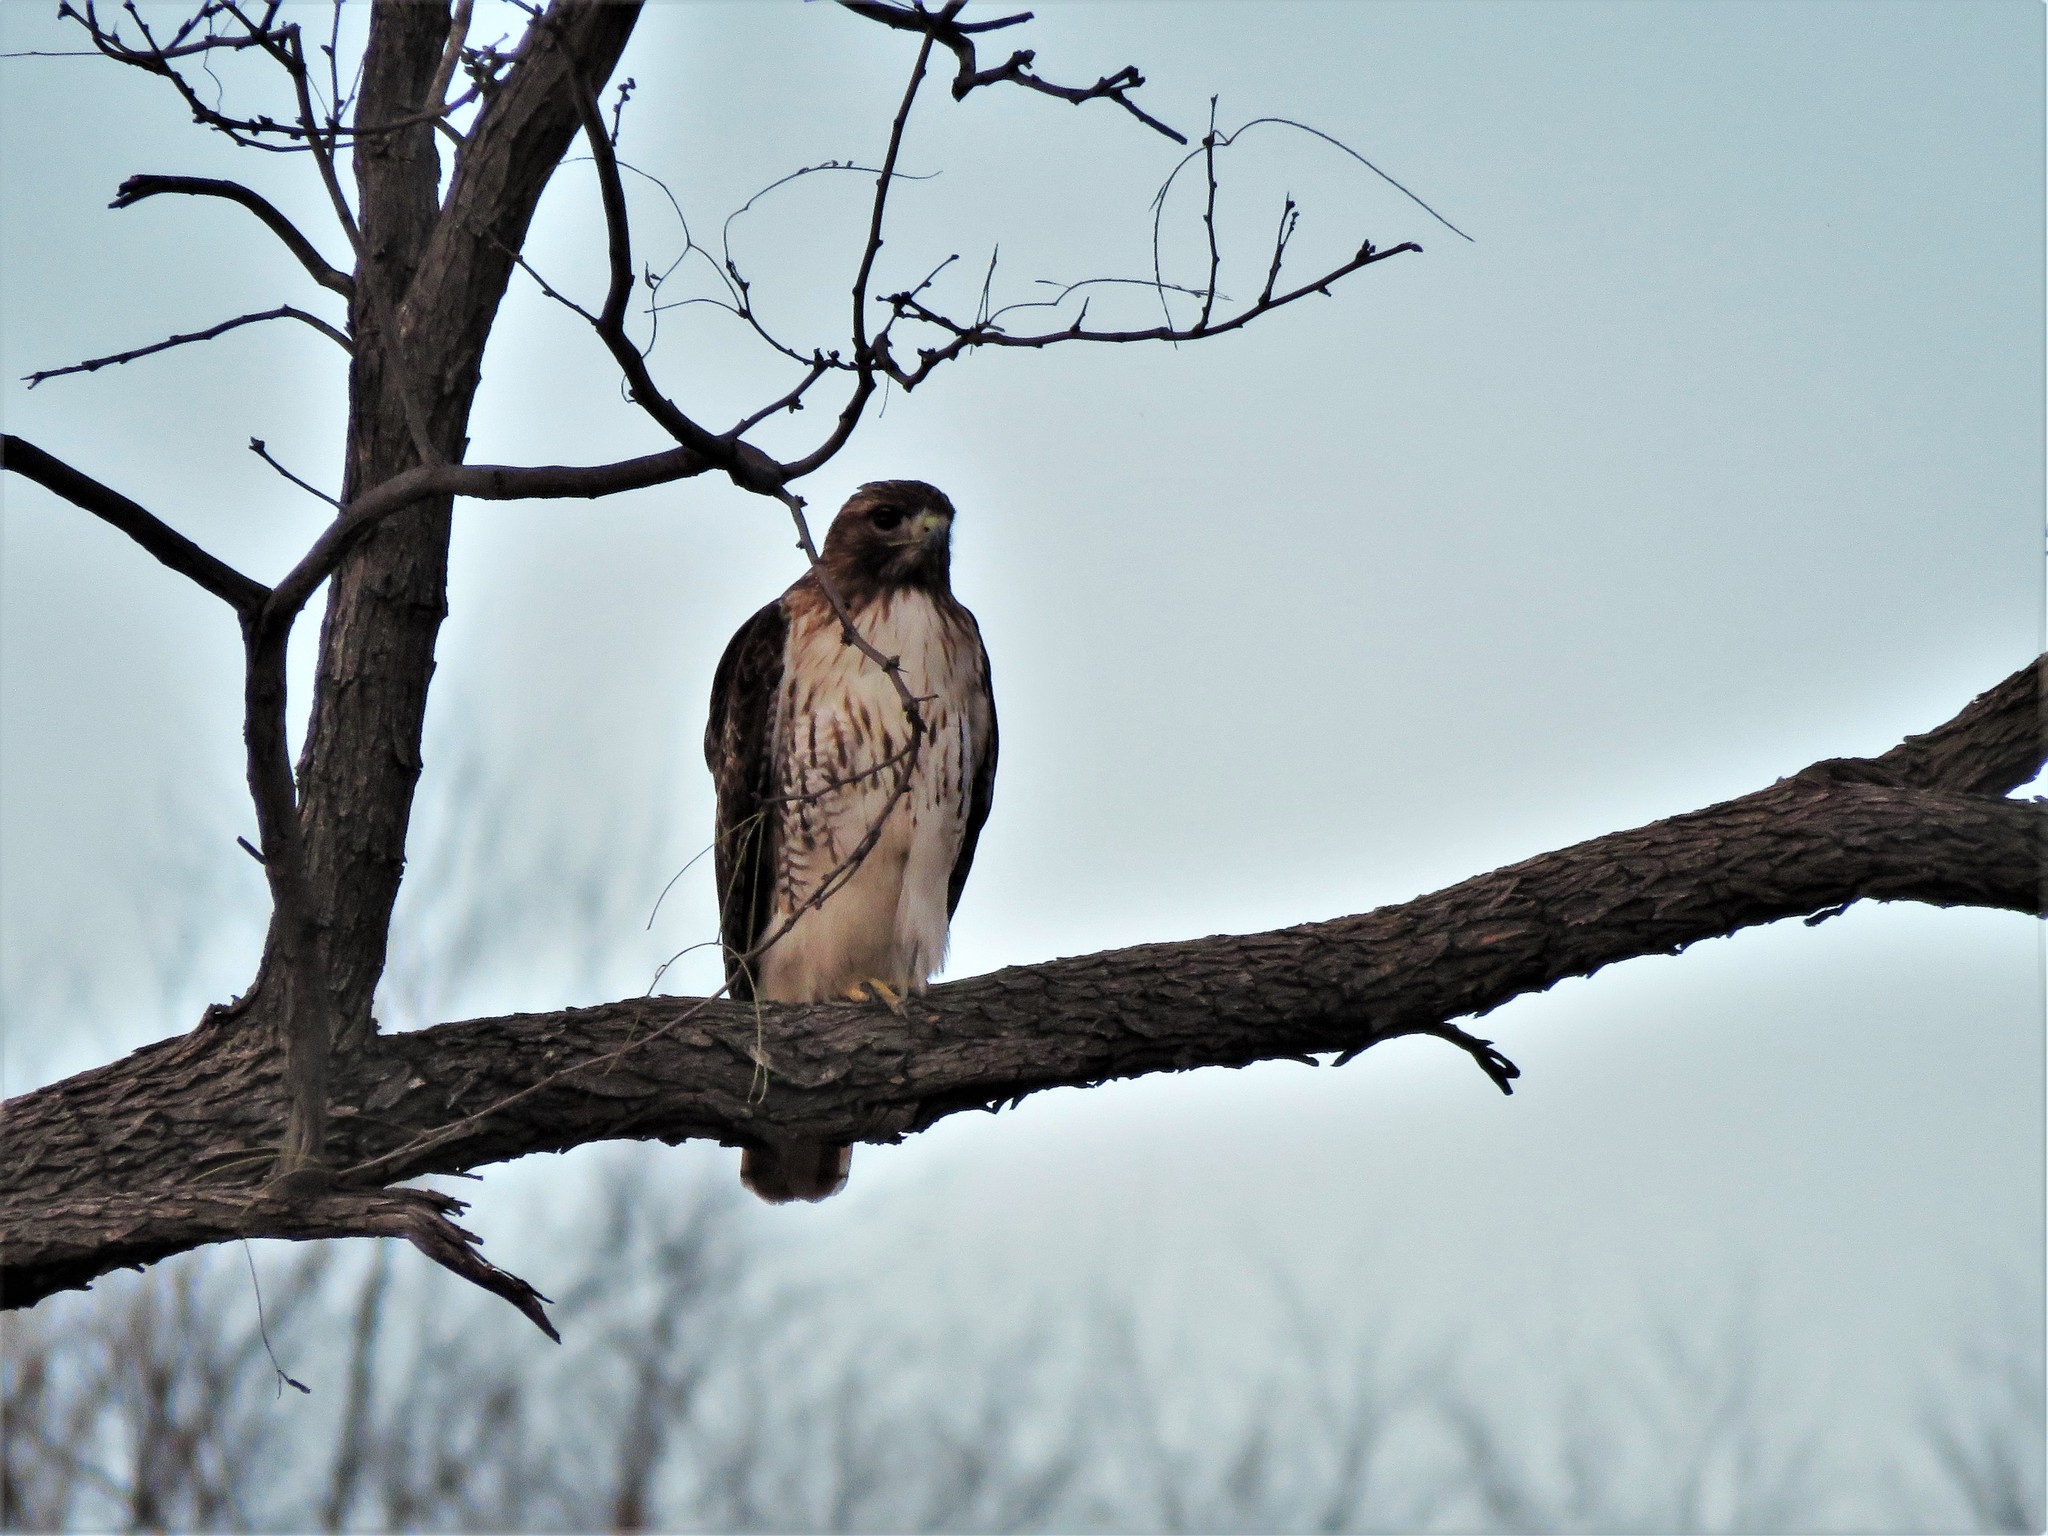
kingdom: Animalia
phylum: Chordata
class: Aves
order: Accipitriformes
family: Accipitridae
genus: Buteo
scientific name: Buteo jamaicensis
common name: Red-tailed hawk
